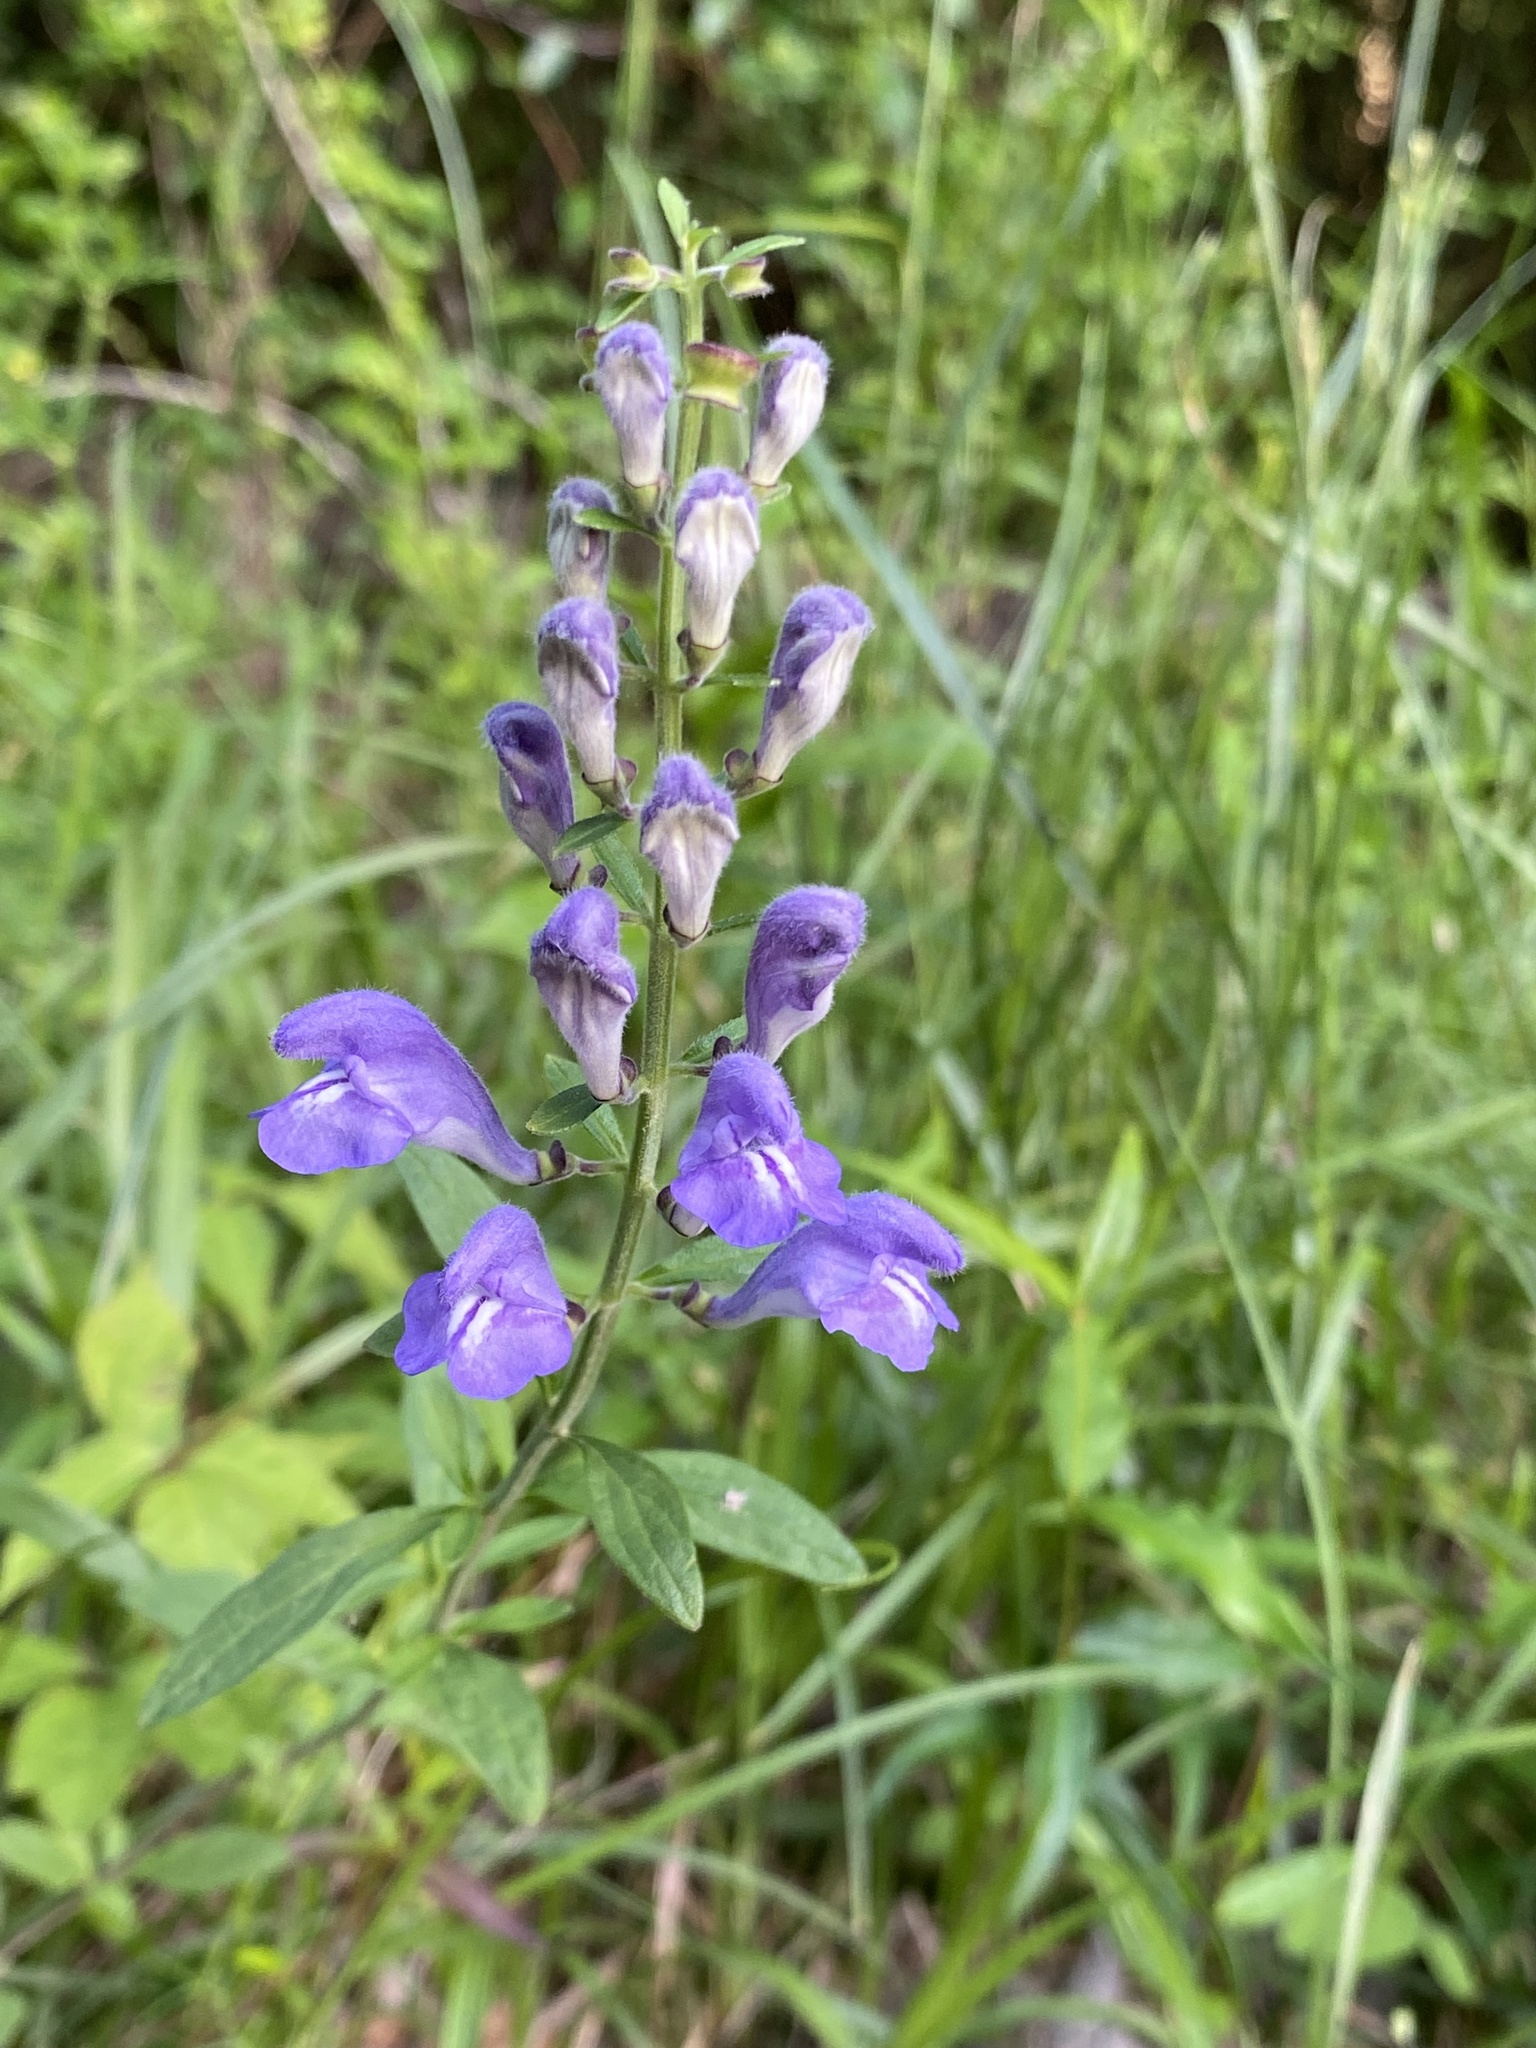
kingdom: Plantae
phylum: Tracheophyta
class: Magnoliopsida
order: Lamiales
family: Lamiaceae
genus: Scutellaria
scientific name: Scutellaria integrifolia
